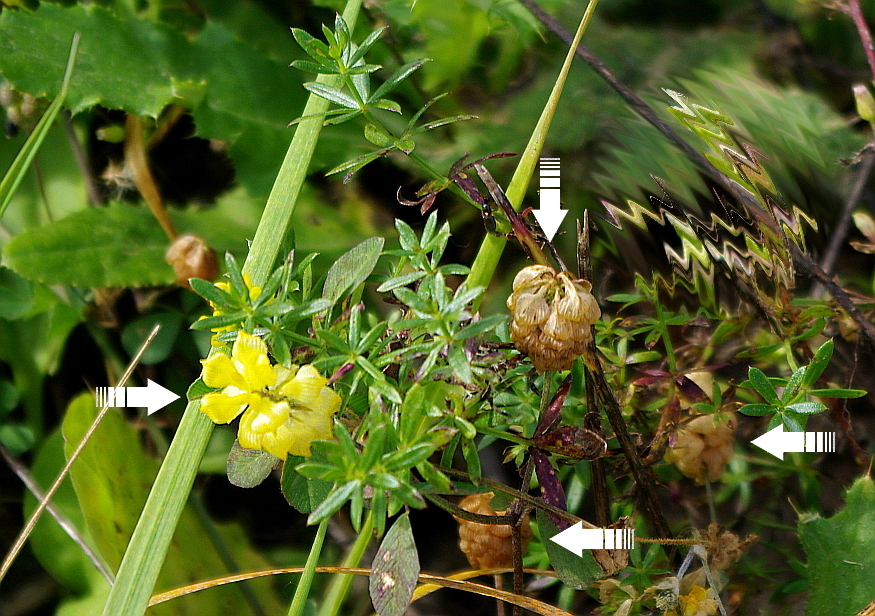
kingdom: Plantae
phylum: Tracheophyta
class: Magnoliopsida
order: Fabales
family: Fabaceae
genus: Trifolium
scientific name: Trifolium campestre
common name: Field clover
